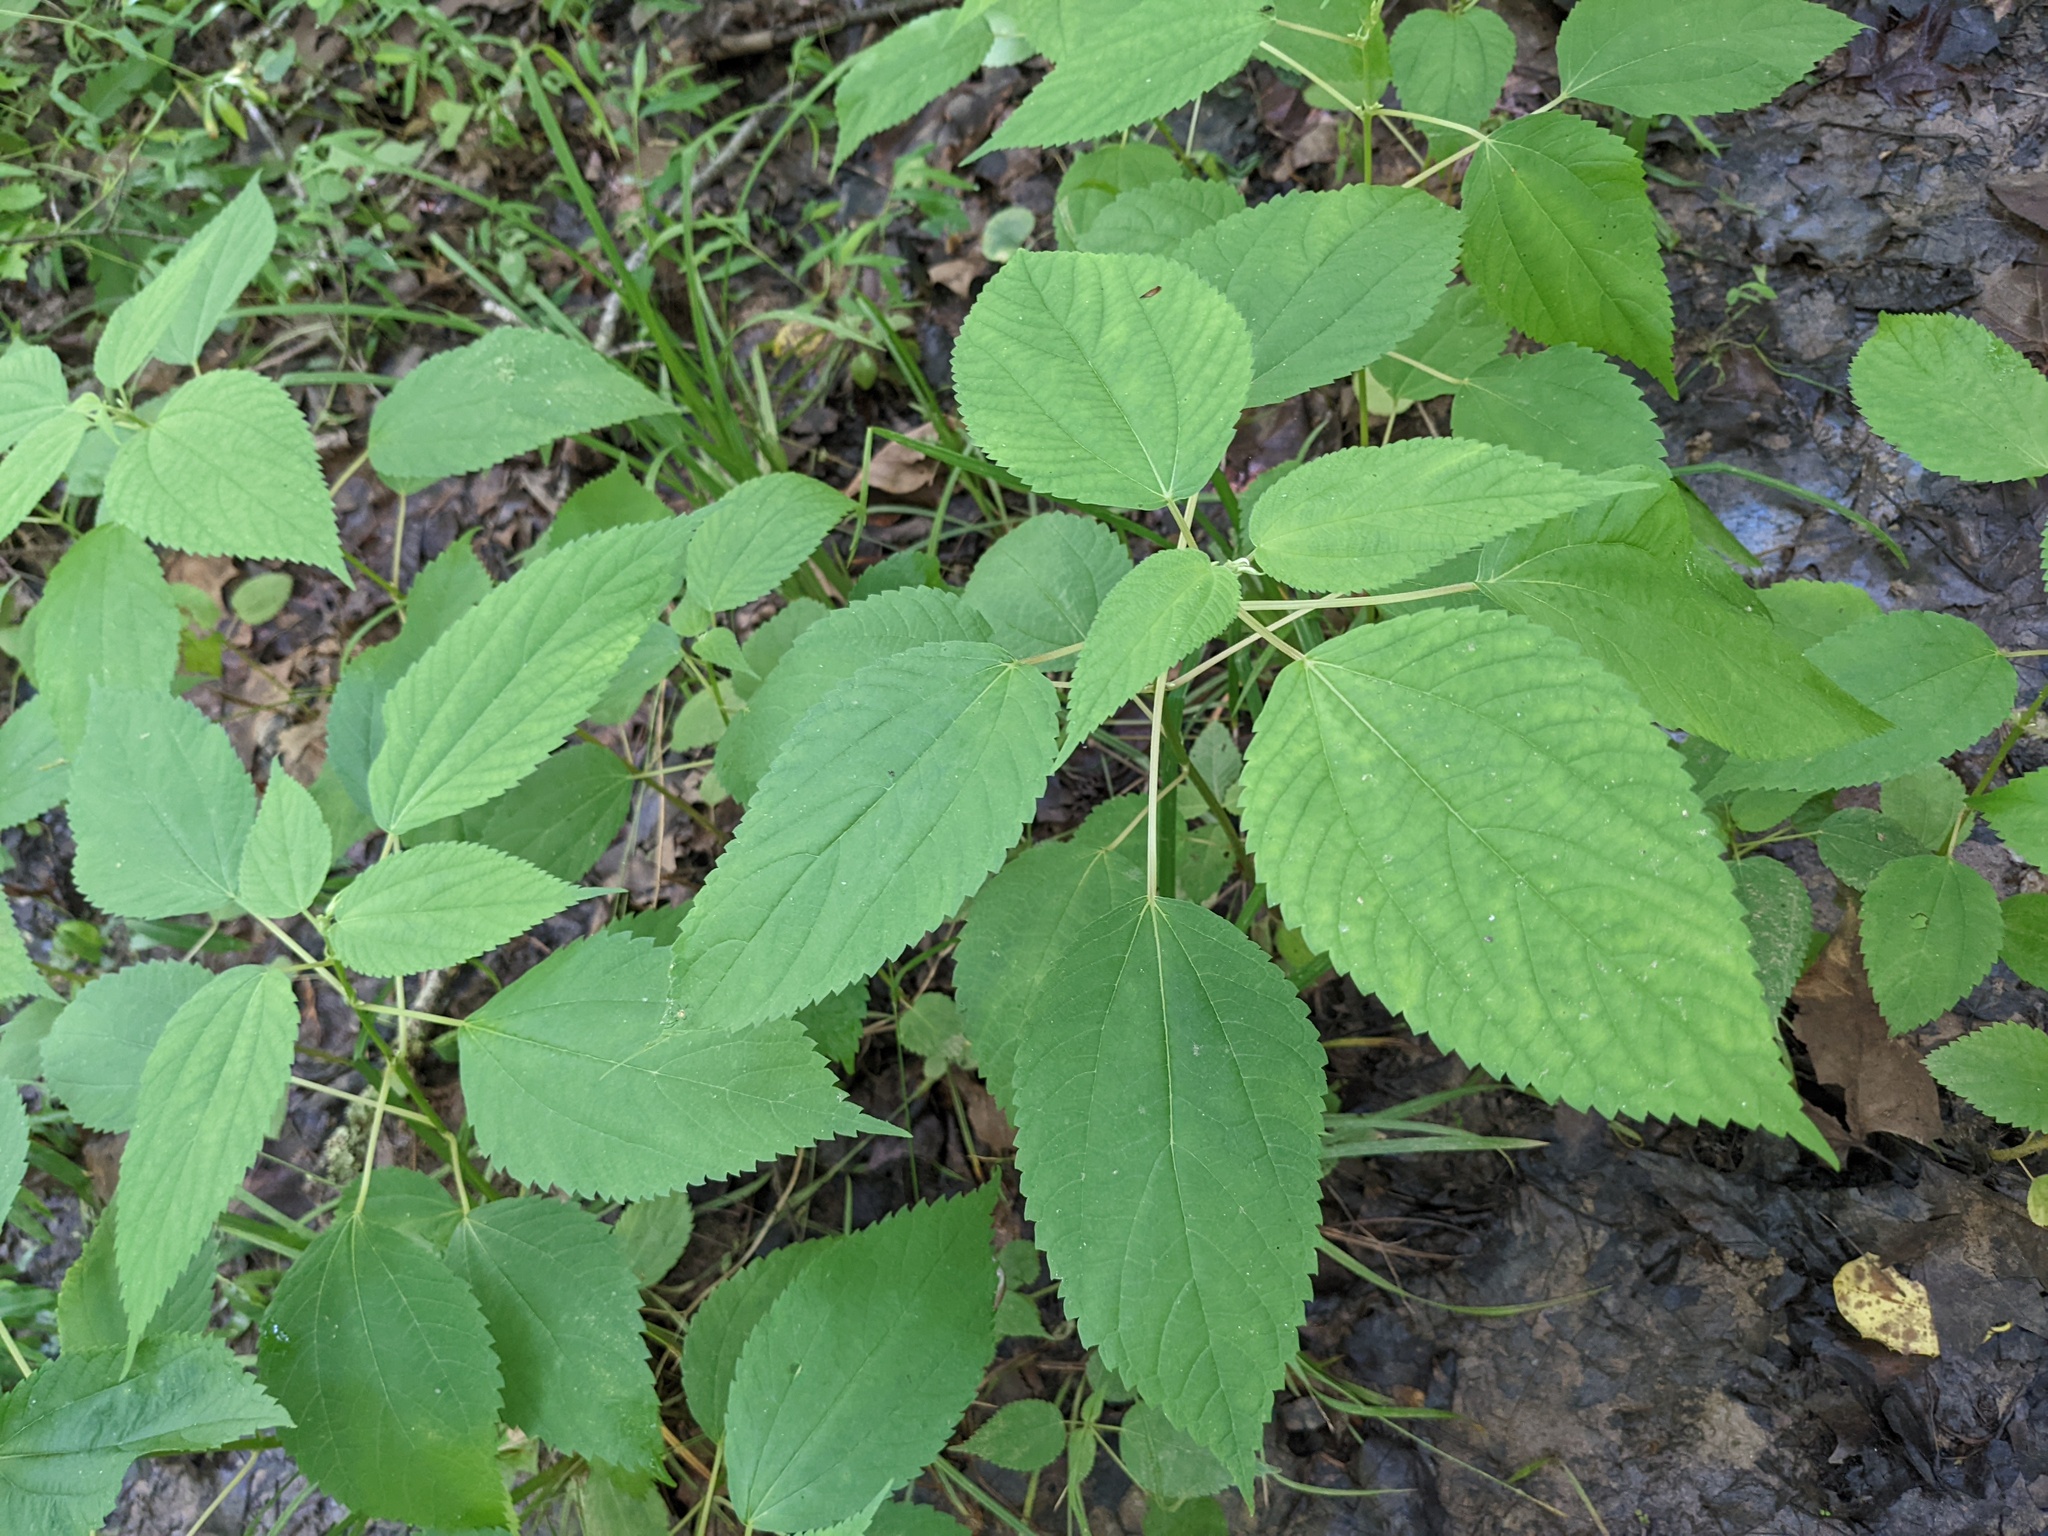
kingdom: Plantae
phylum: Tracheophyta
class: Magnoliopsida
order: Rosales
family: Urticaceae
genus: Boehmeria
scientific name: Boehmeria cylindrica
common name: Bog-hemp
